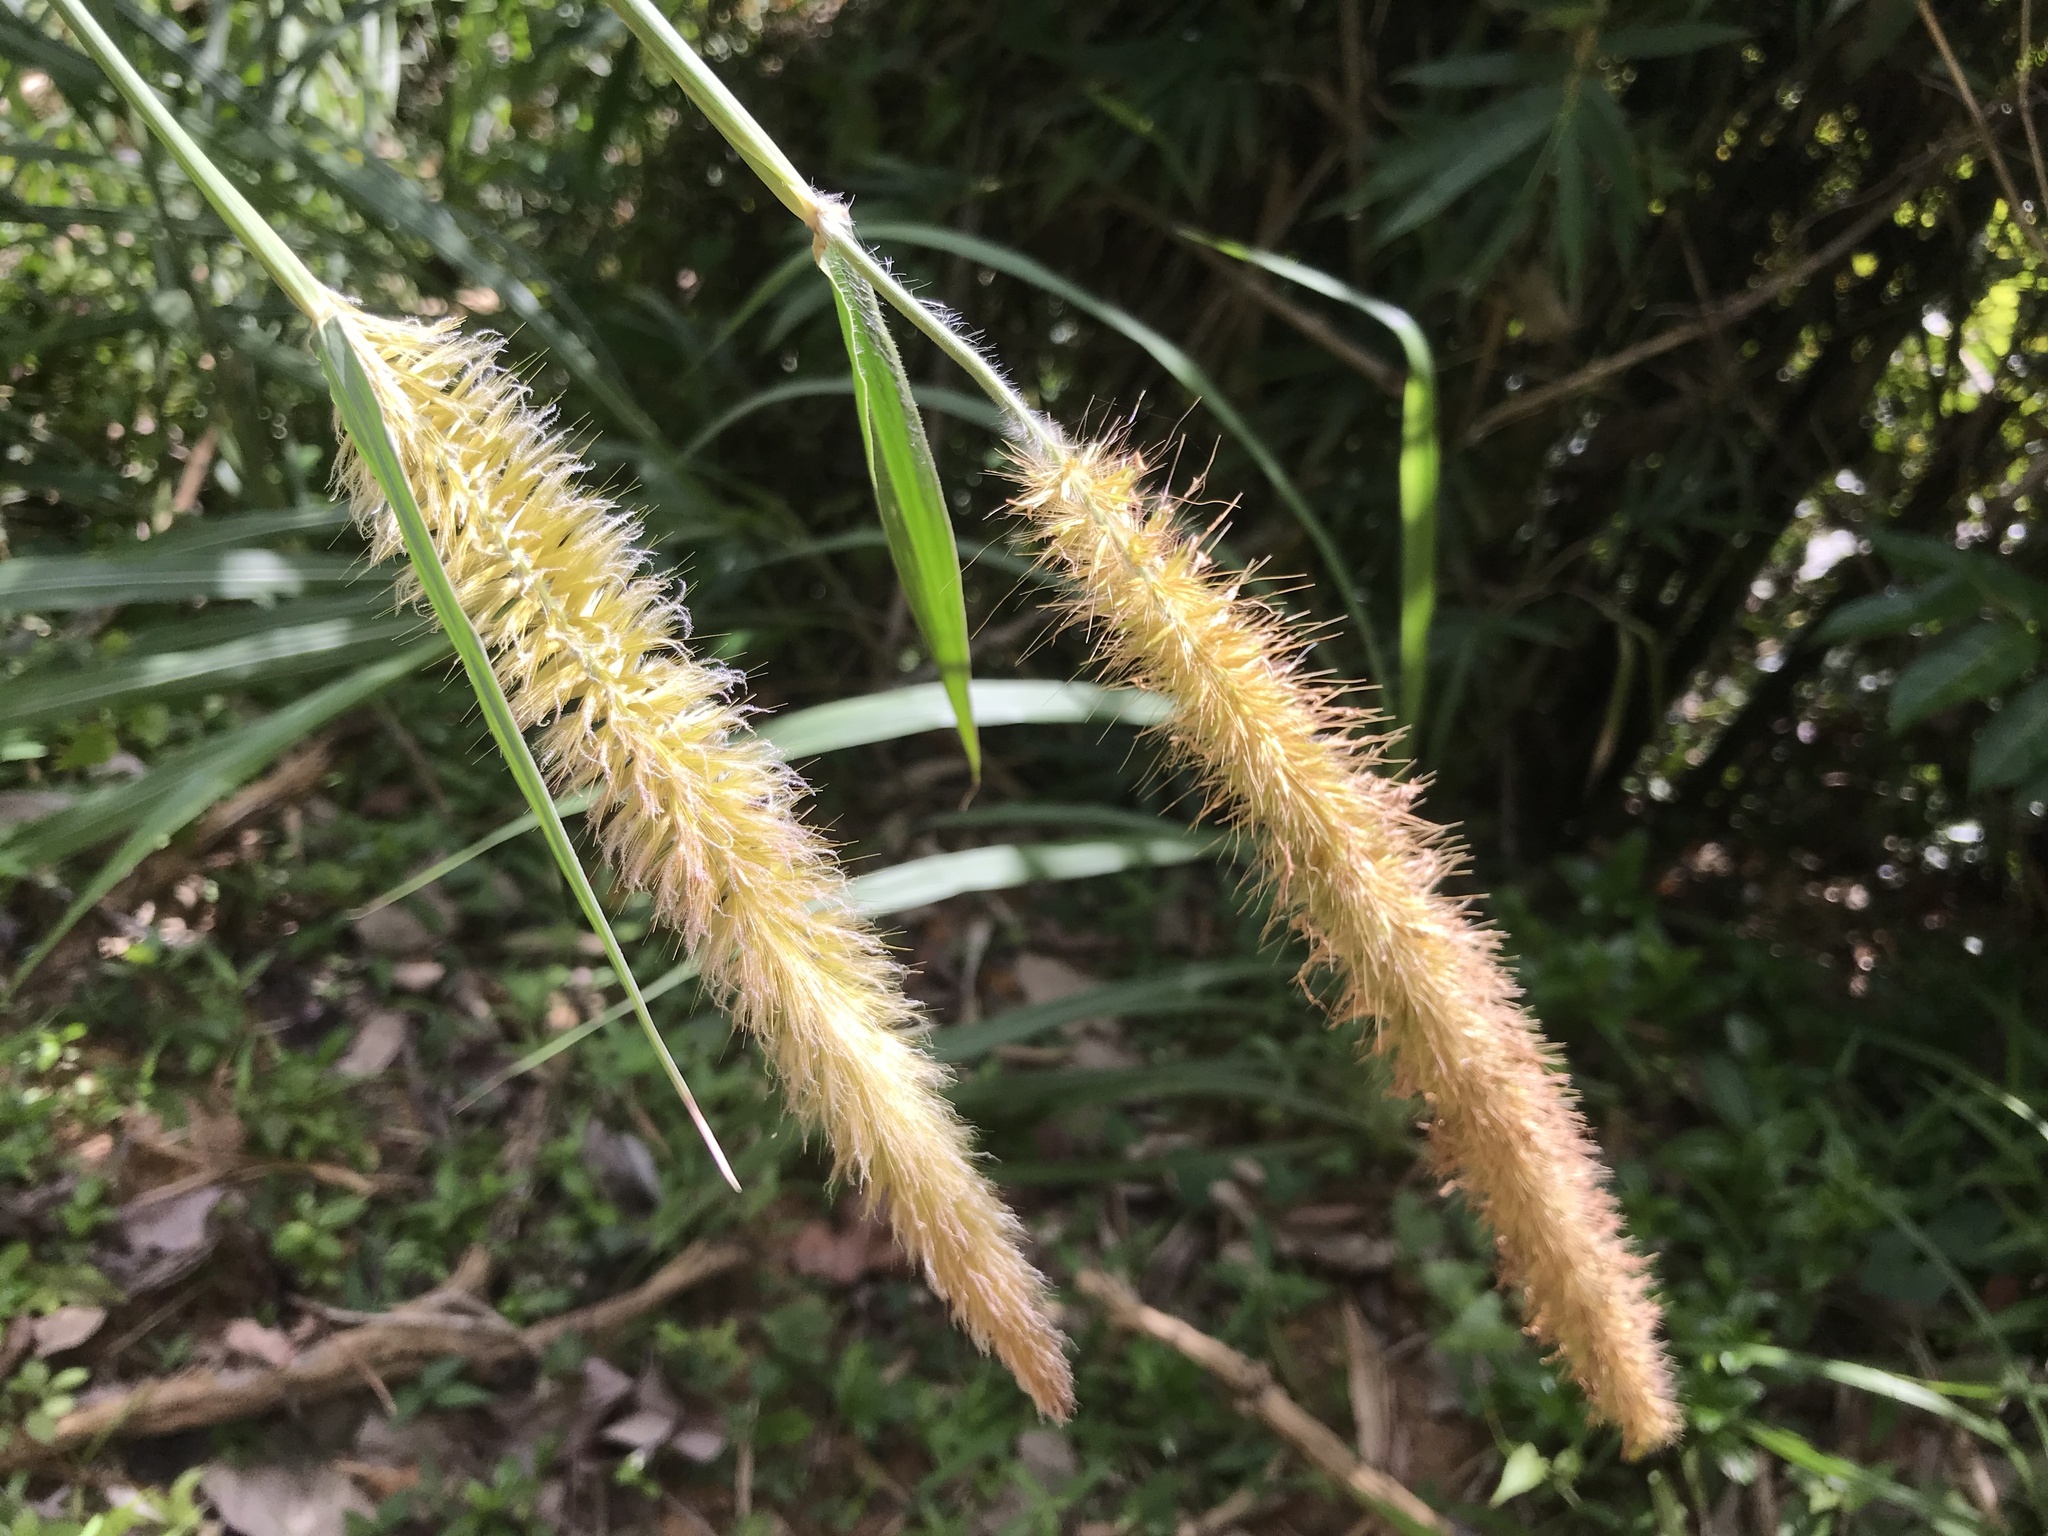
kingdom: Plantae
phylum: Tracheophyta
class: Liliopsida
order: Poales
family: Poaceae
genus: Cenchrus
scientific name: Cenchrus purpureus
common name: Elephant grass
